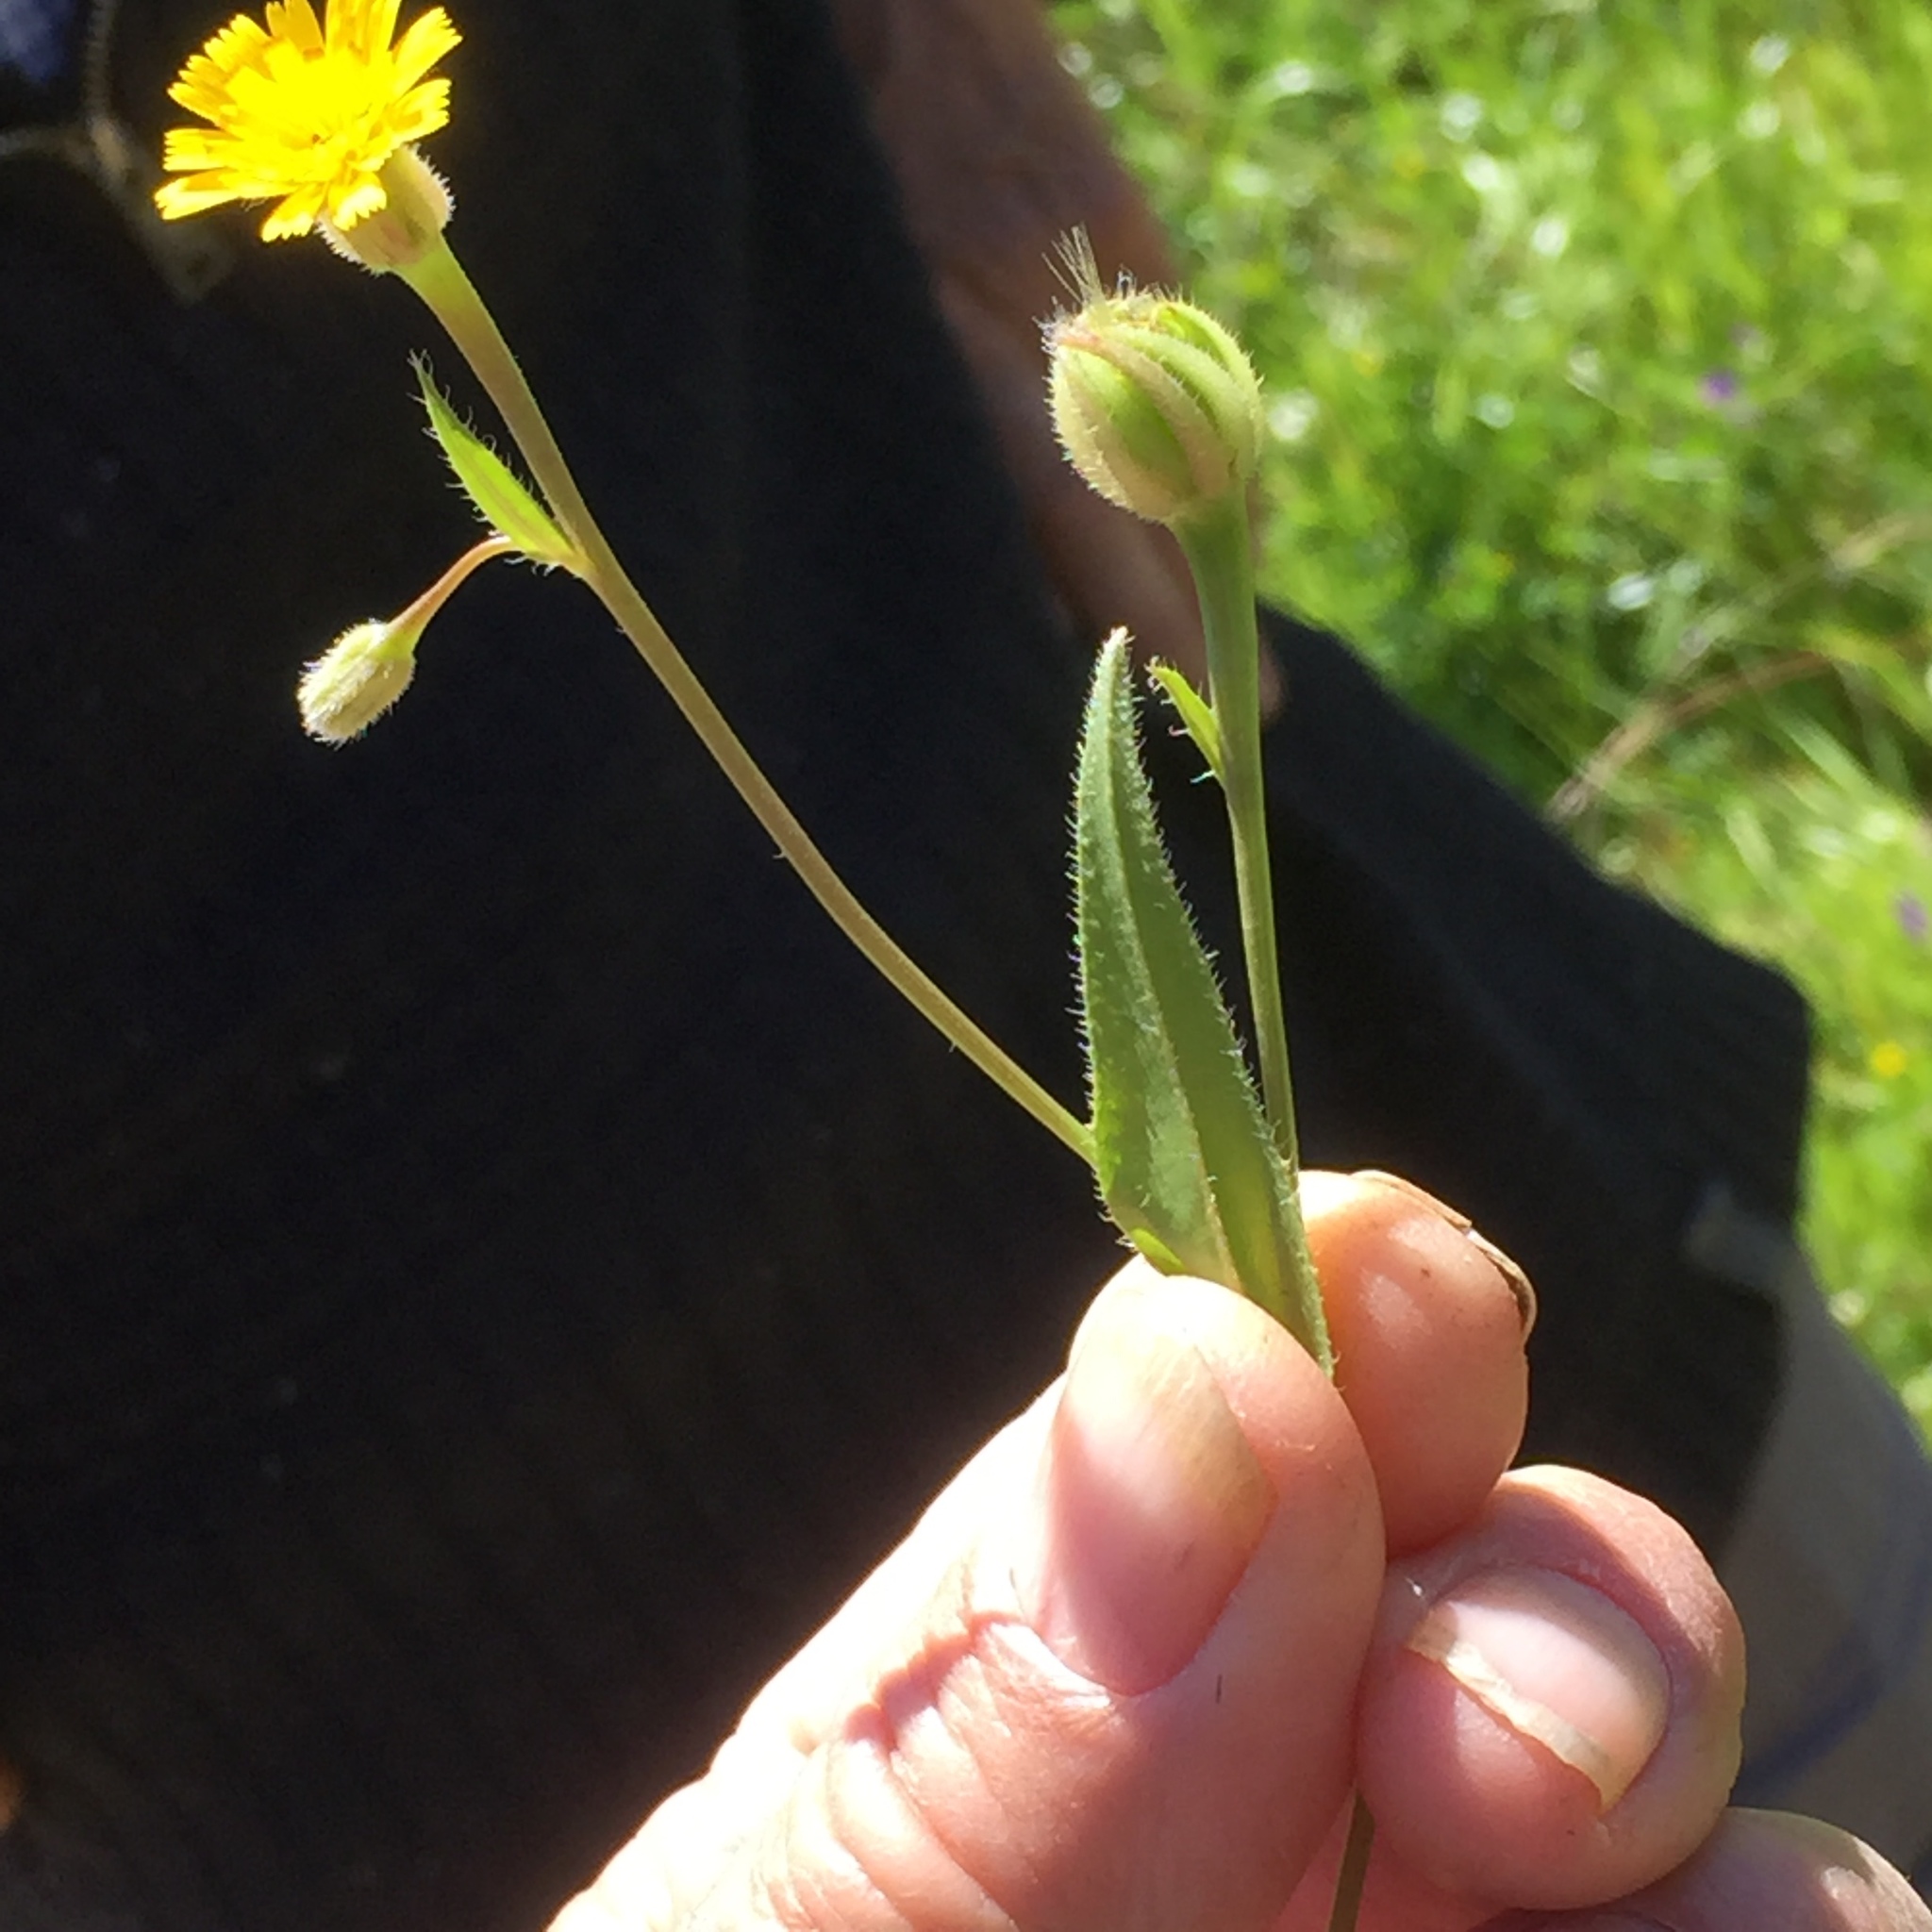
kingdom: Plantae
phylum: Tracheophyta
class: Magnoliopsida
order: Asterales
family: Asteraceae
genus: Hedypnois
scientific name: Hedypnois rhagadioloides
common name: Cretan weed
